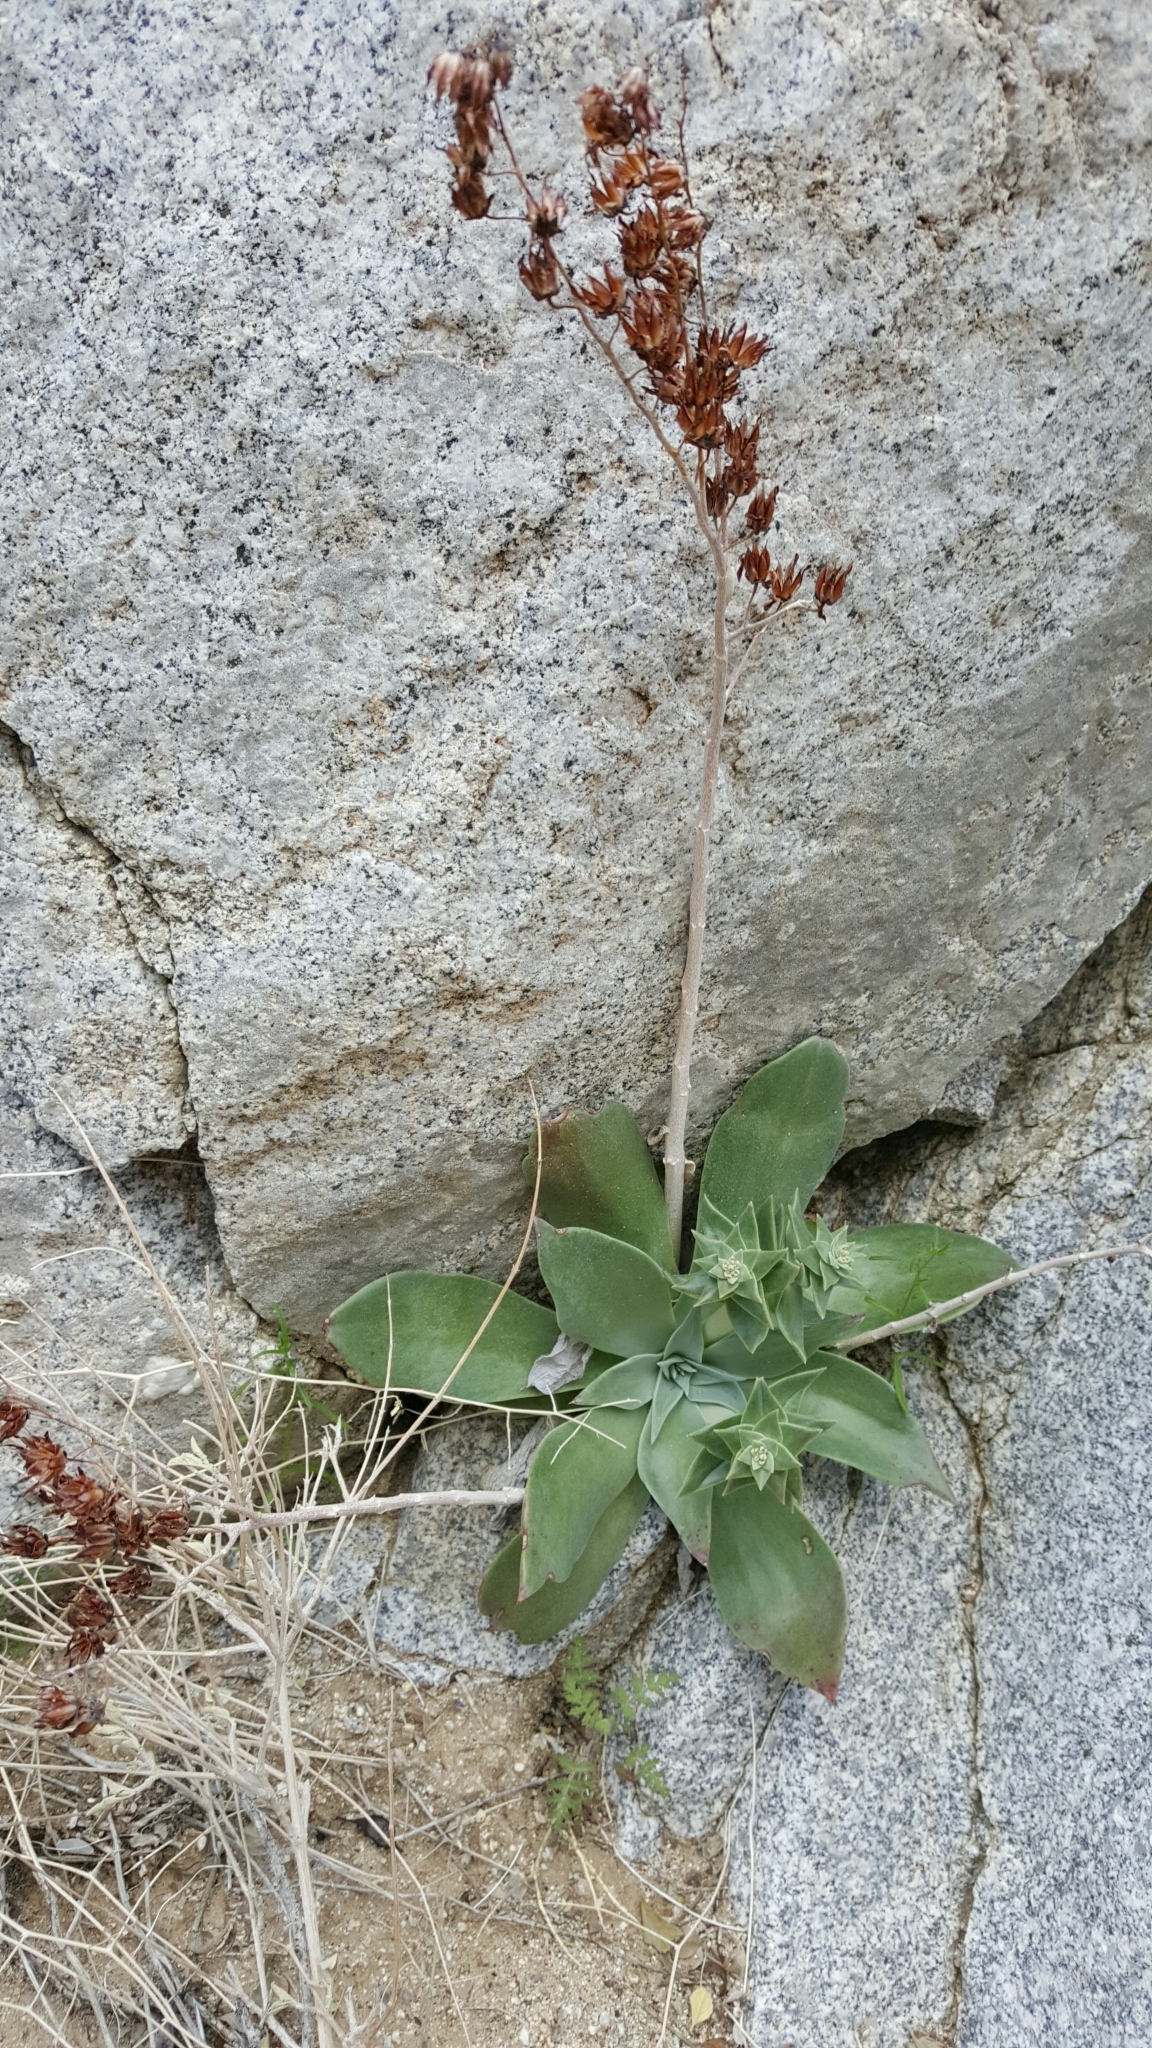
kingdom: Plantae
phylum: Tracheophyta
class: Magnoliopsida
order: Saxifragales
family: Crassulaceae
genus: Dudleya
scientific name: Dudleya arizonica
